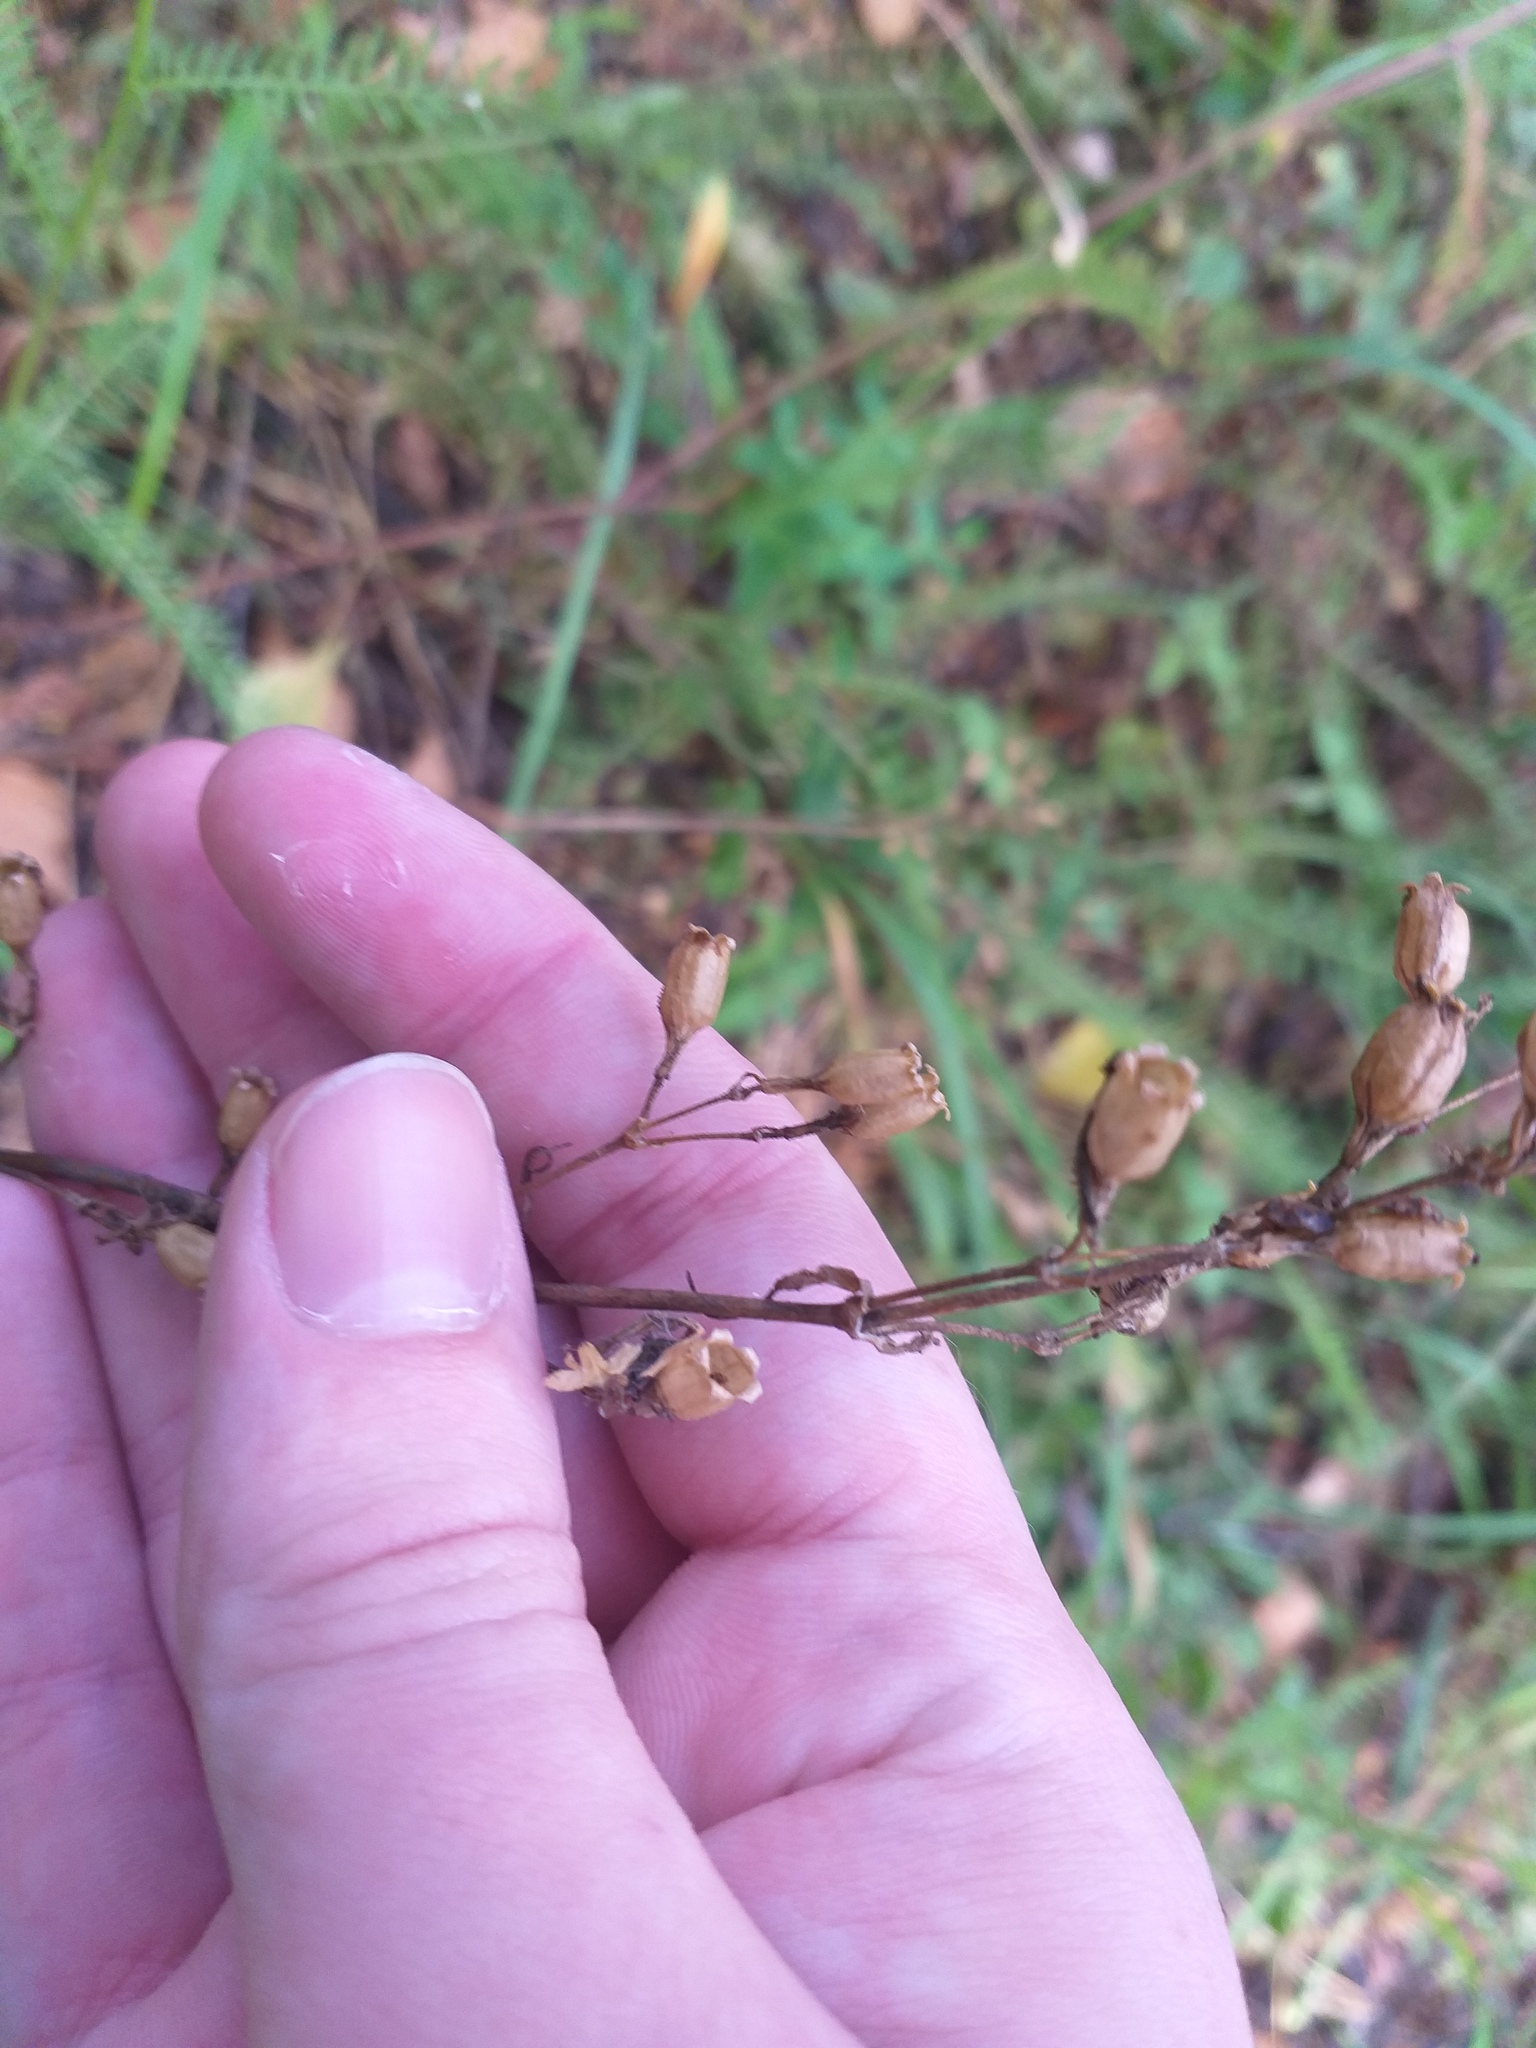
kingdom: Plantae
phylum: Tracheophyta
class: Magnoliopsida
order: Caryophyllales
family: Caryophyllaceae
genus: Viscaria
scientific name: Viscaria vulgaris
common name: Clammy campion
